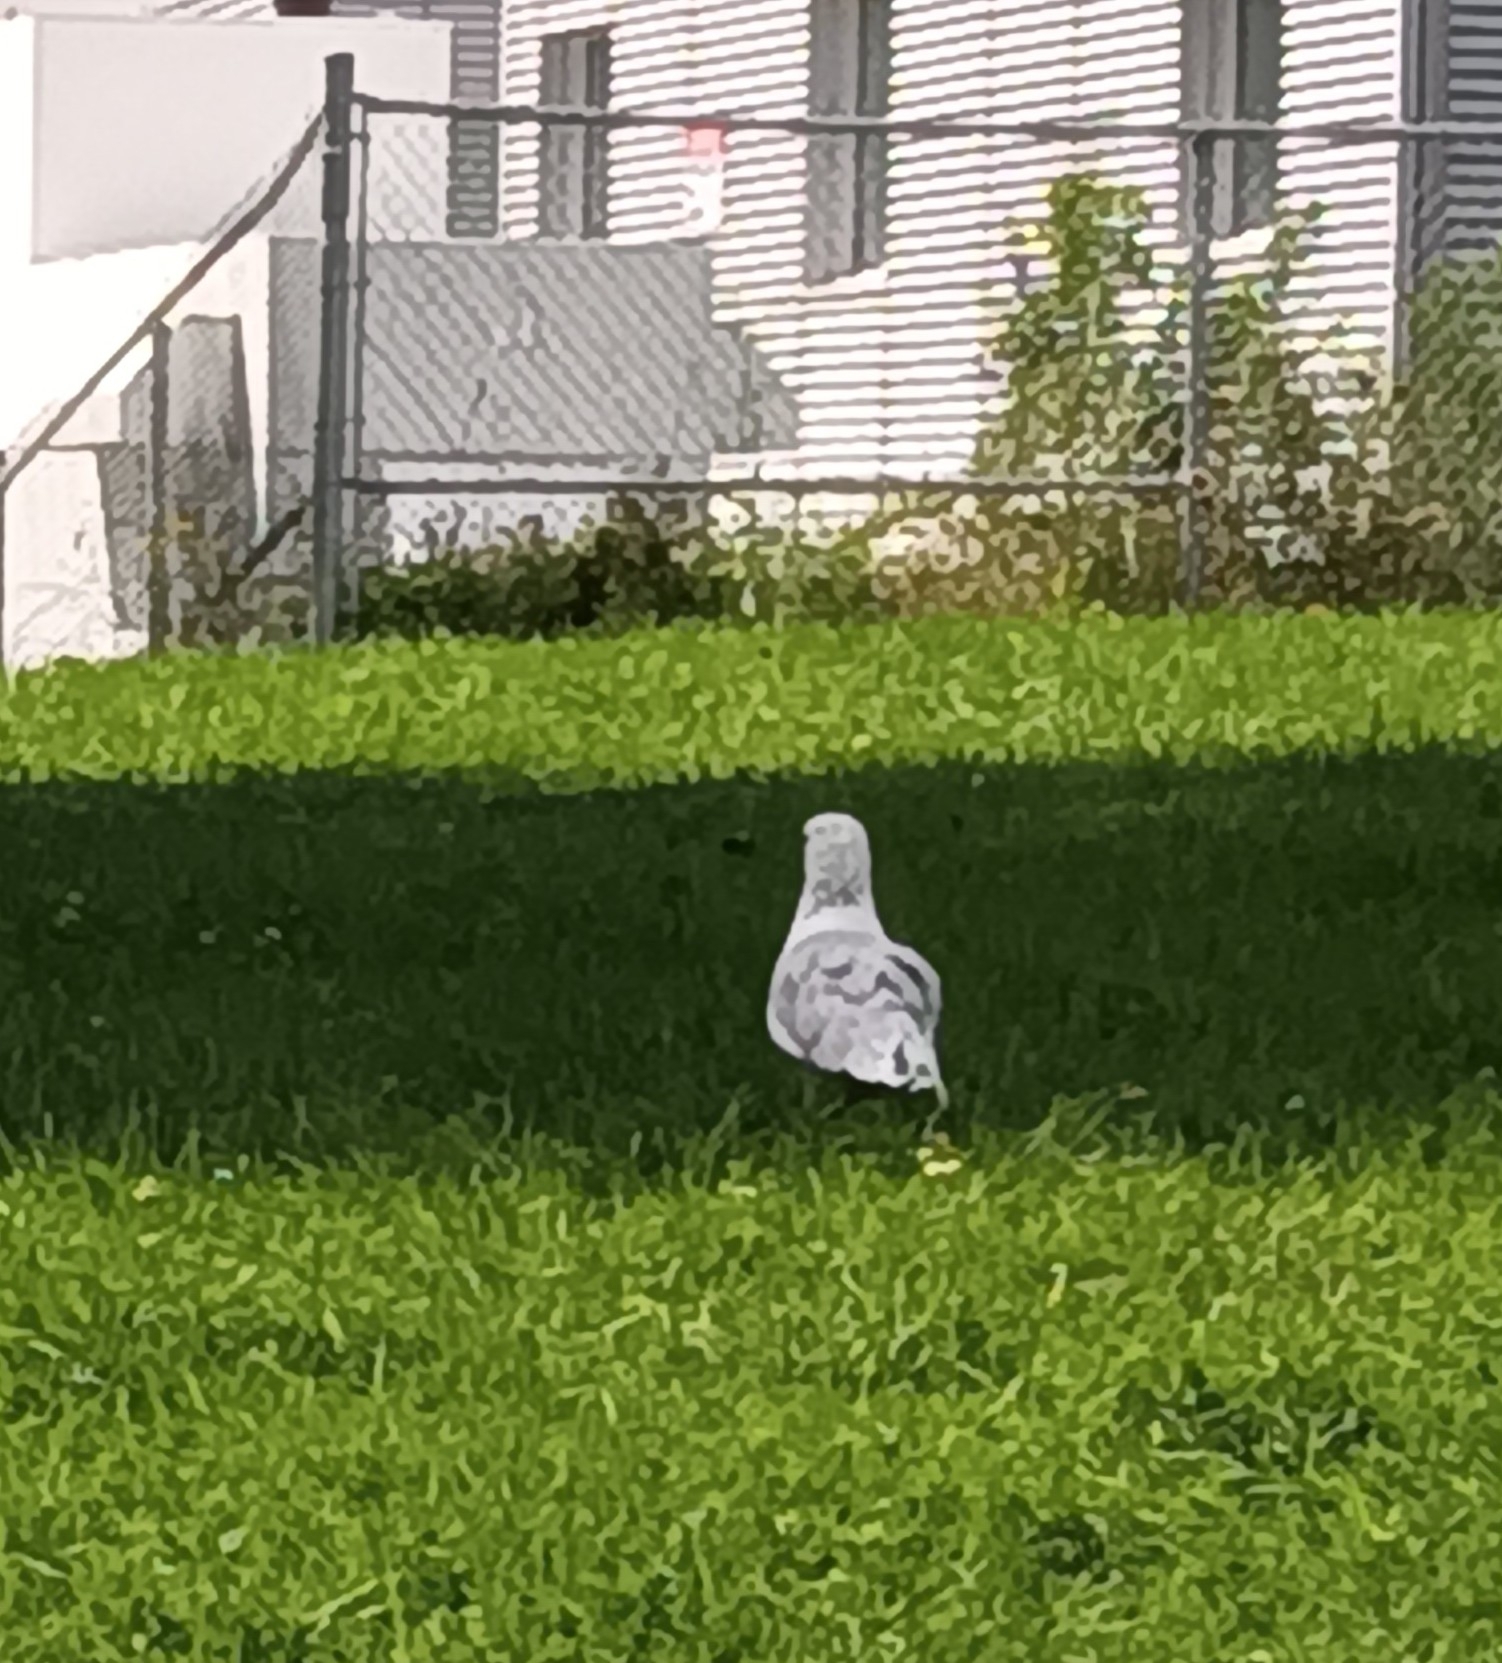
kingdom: Animalia
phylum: Chordata
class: Aves
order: Charadriiformes
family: Laridae
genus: Larus
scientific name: Larus delawarensis
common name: Ring-billed gull
